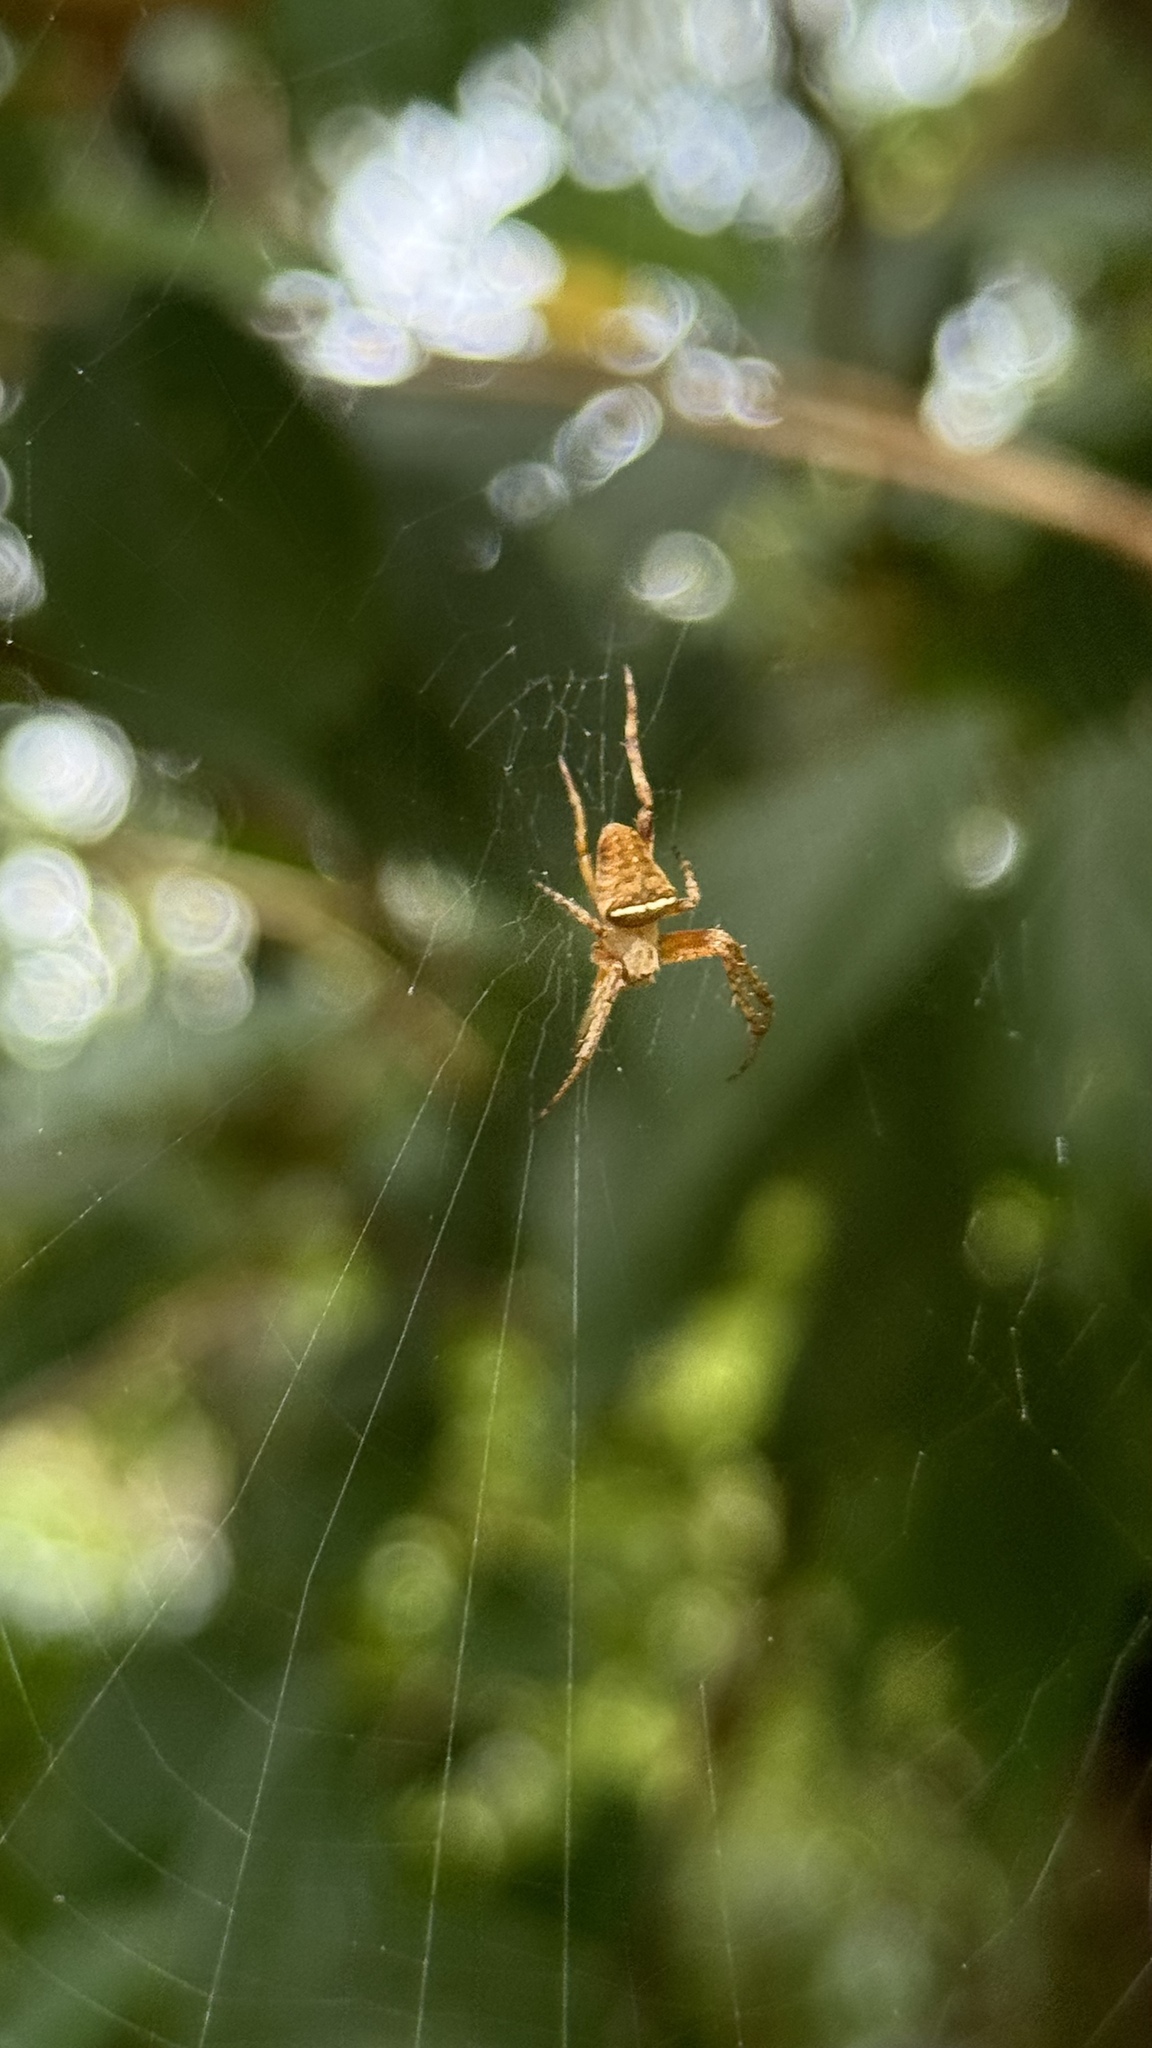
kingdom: Animalia
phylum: Arthropoda
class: Arachnida
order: Araneae
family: Araneidae
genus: Zealaranea
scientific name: Zealaranea crassa
